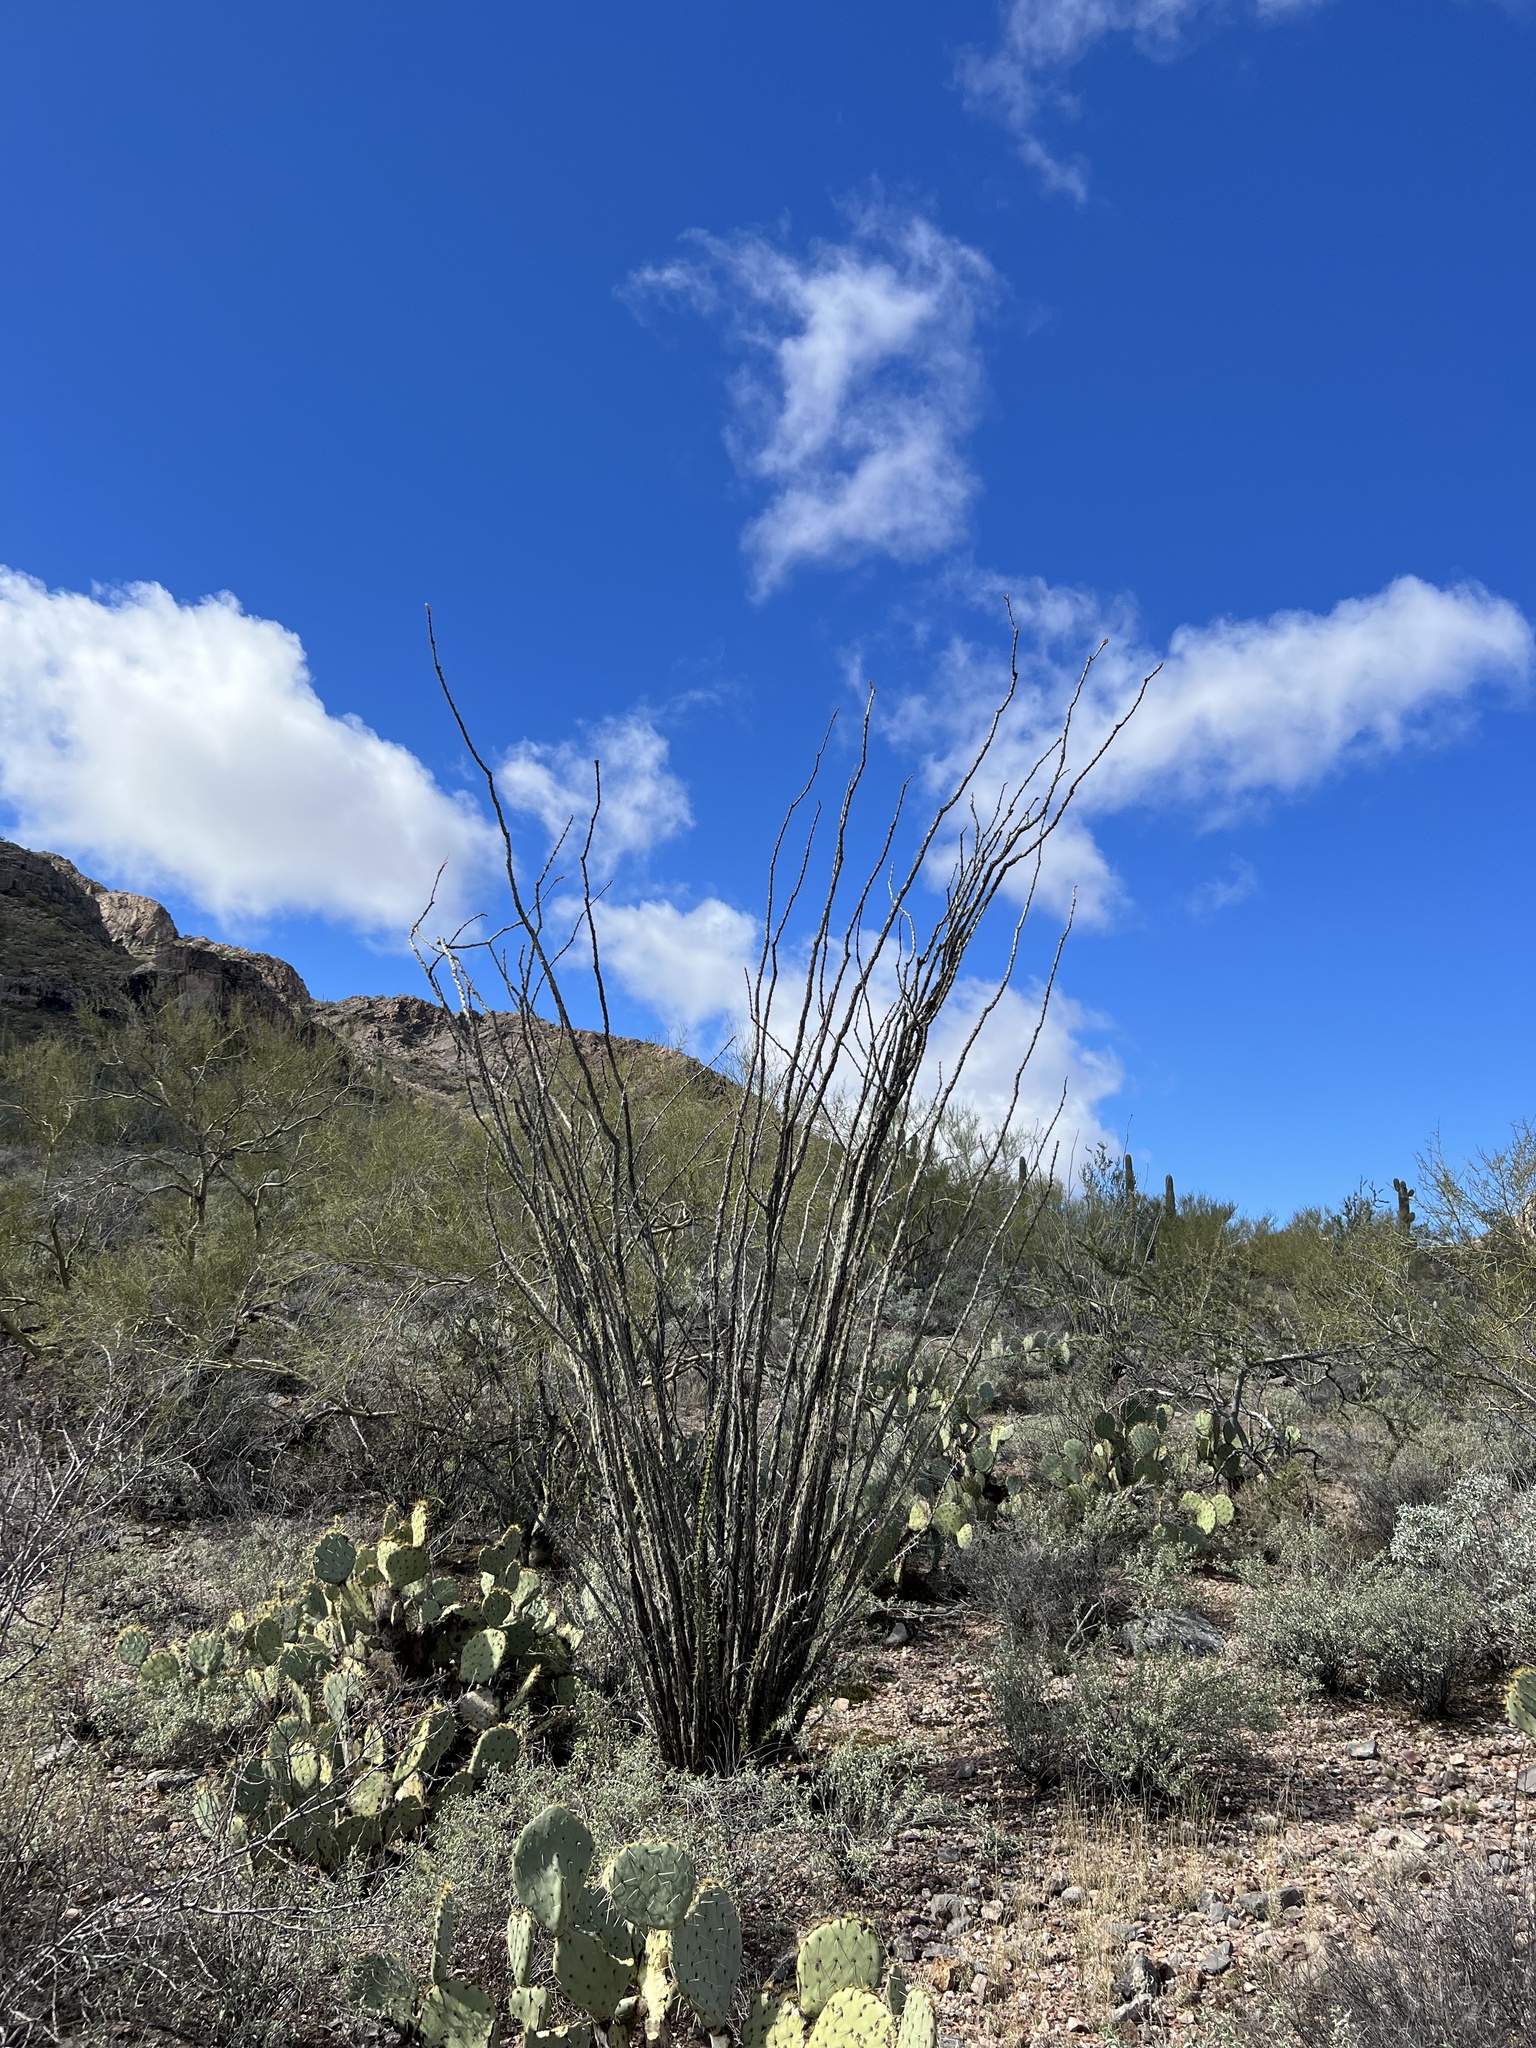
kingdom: Plantae
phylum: Tracheophyta
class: Magnoliopsida
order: Ericales
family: Fouquieriaceae
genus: Fouquieria
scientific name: Fouquieria splendens
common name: Vine-cactus
